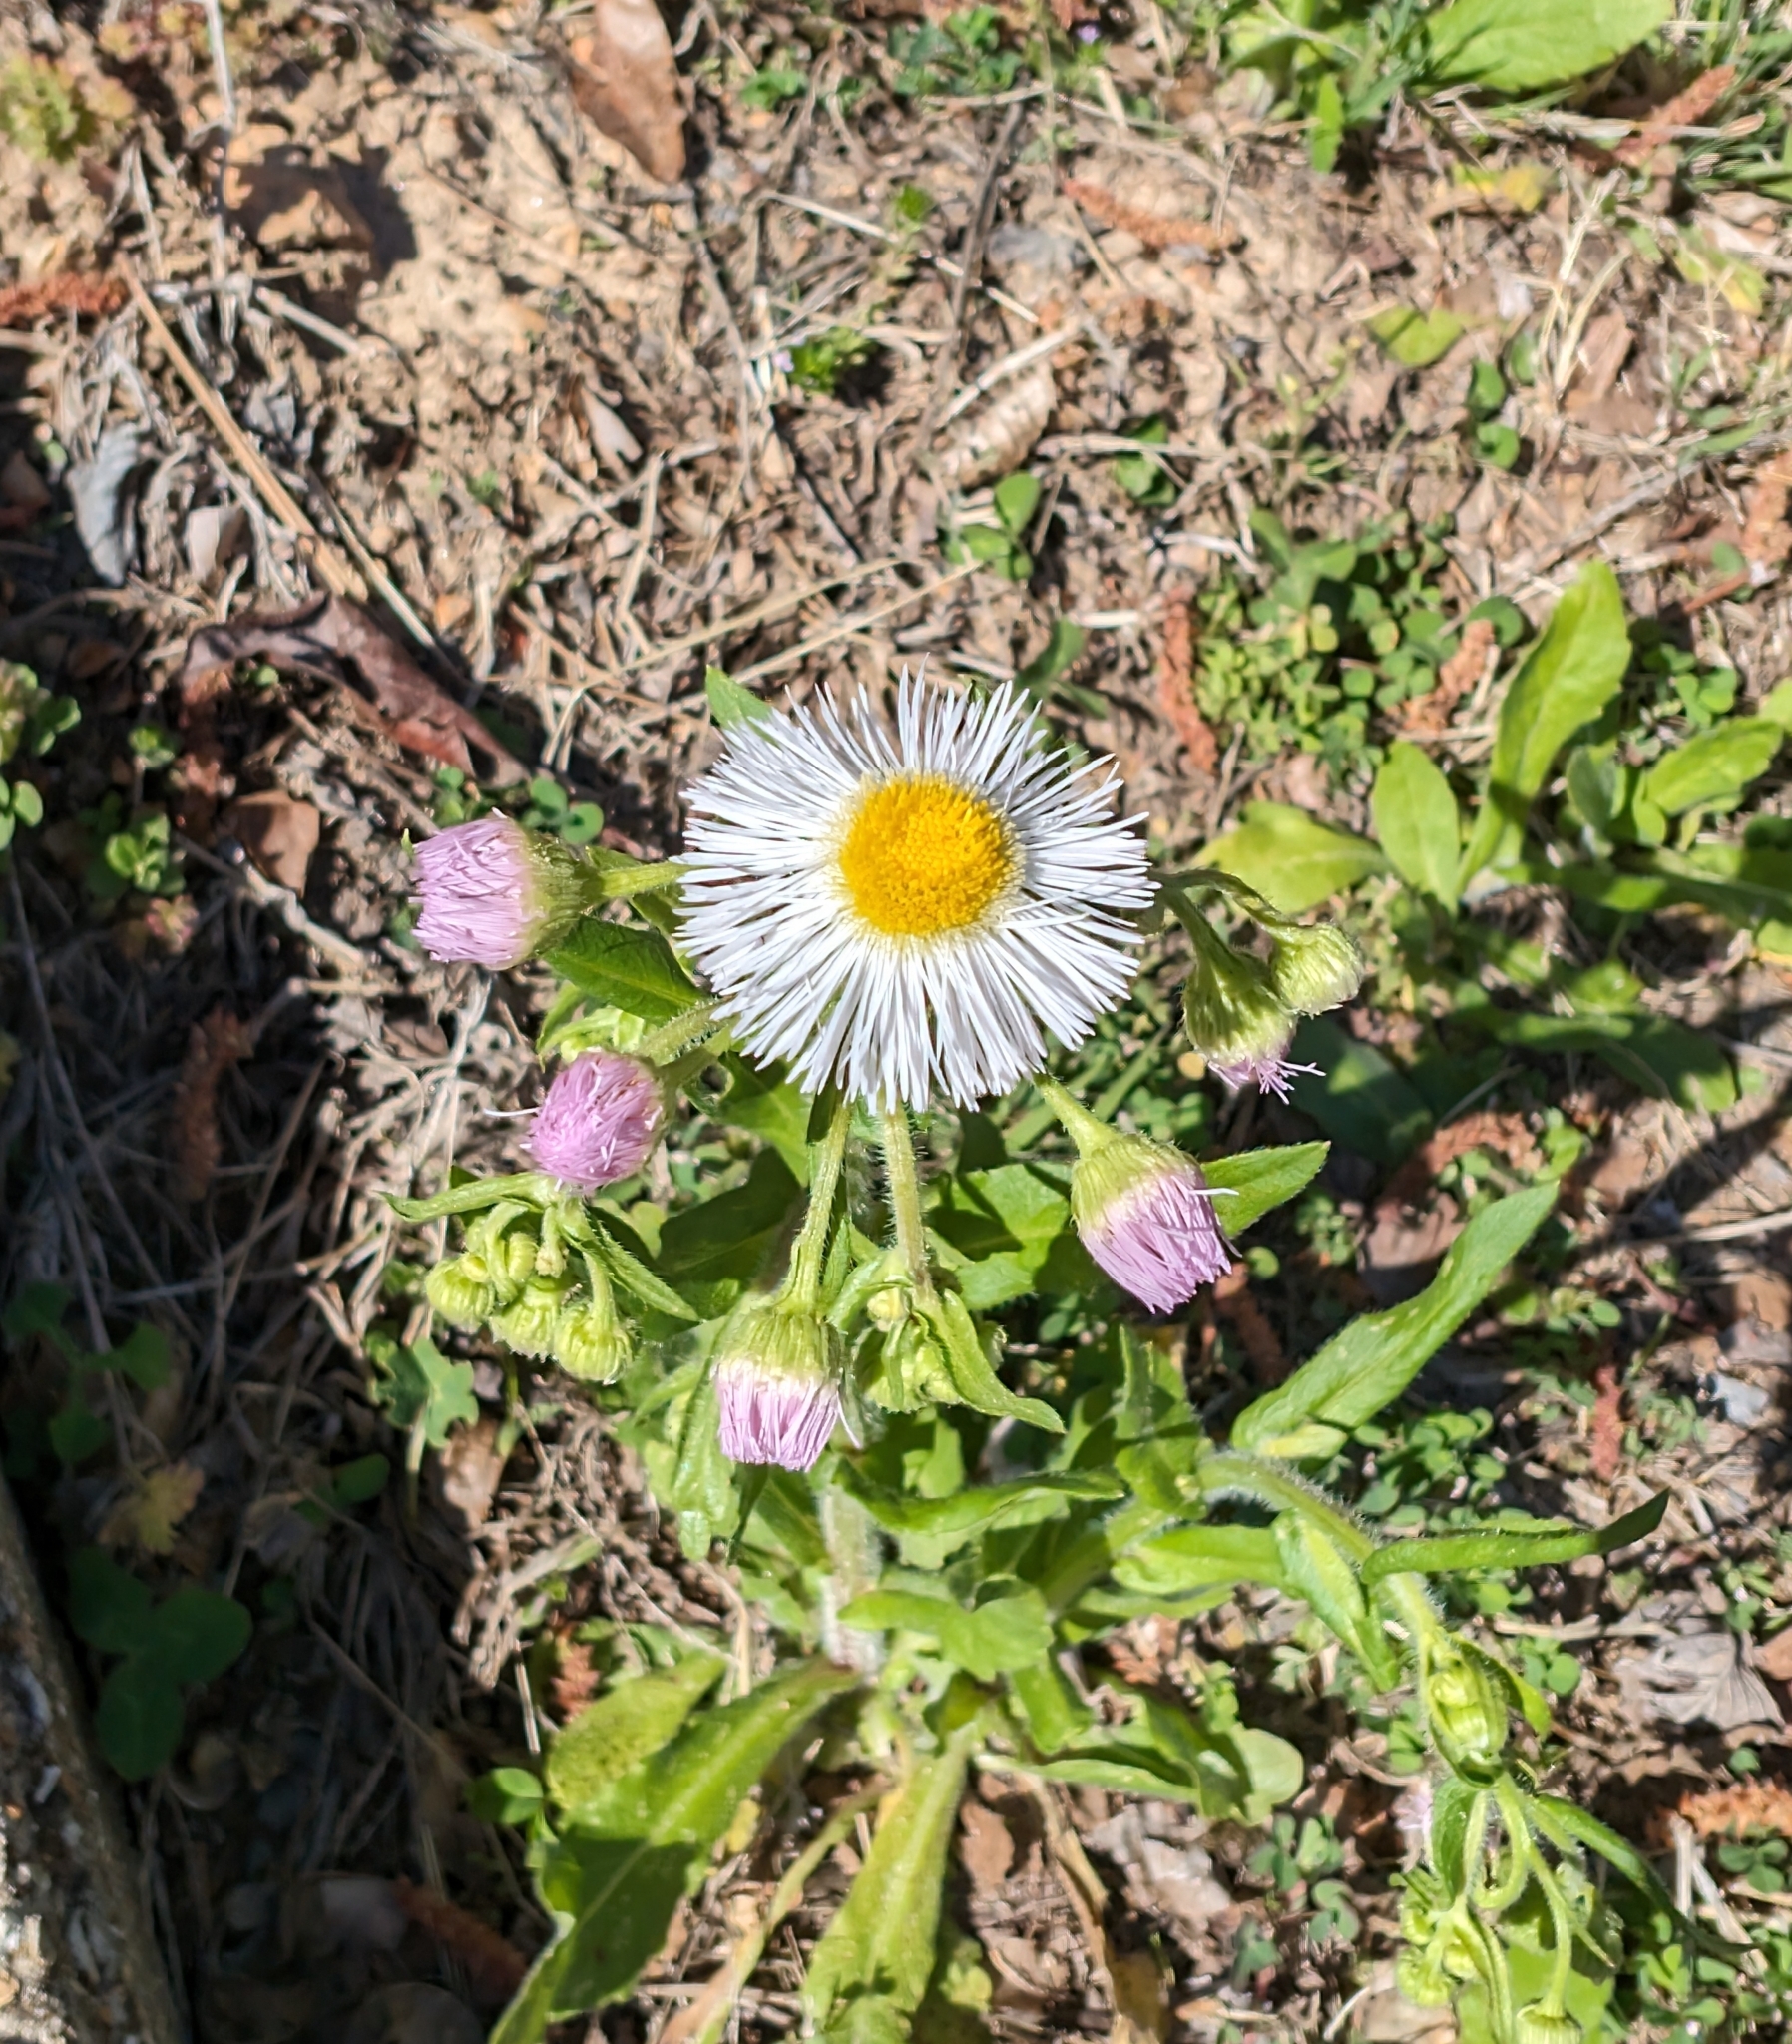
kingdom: Plantae
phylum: Tracheophyta
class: Magnoliopsida
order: Asterales
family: Asteraceae
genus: Erigeron
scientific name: Erigeron philadelphicus
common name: Robin's-plantain
